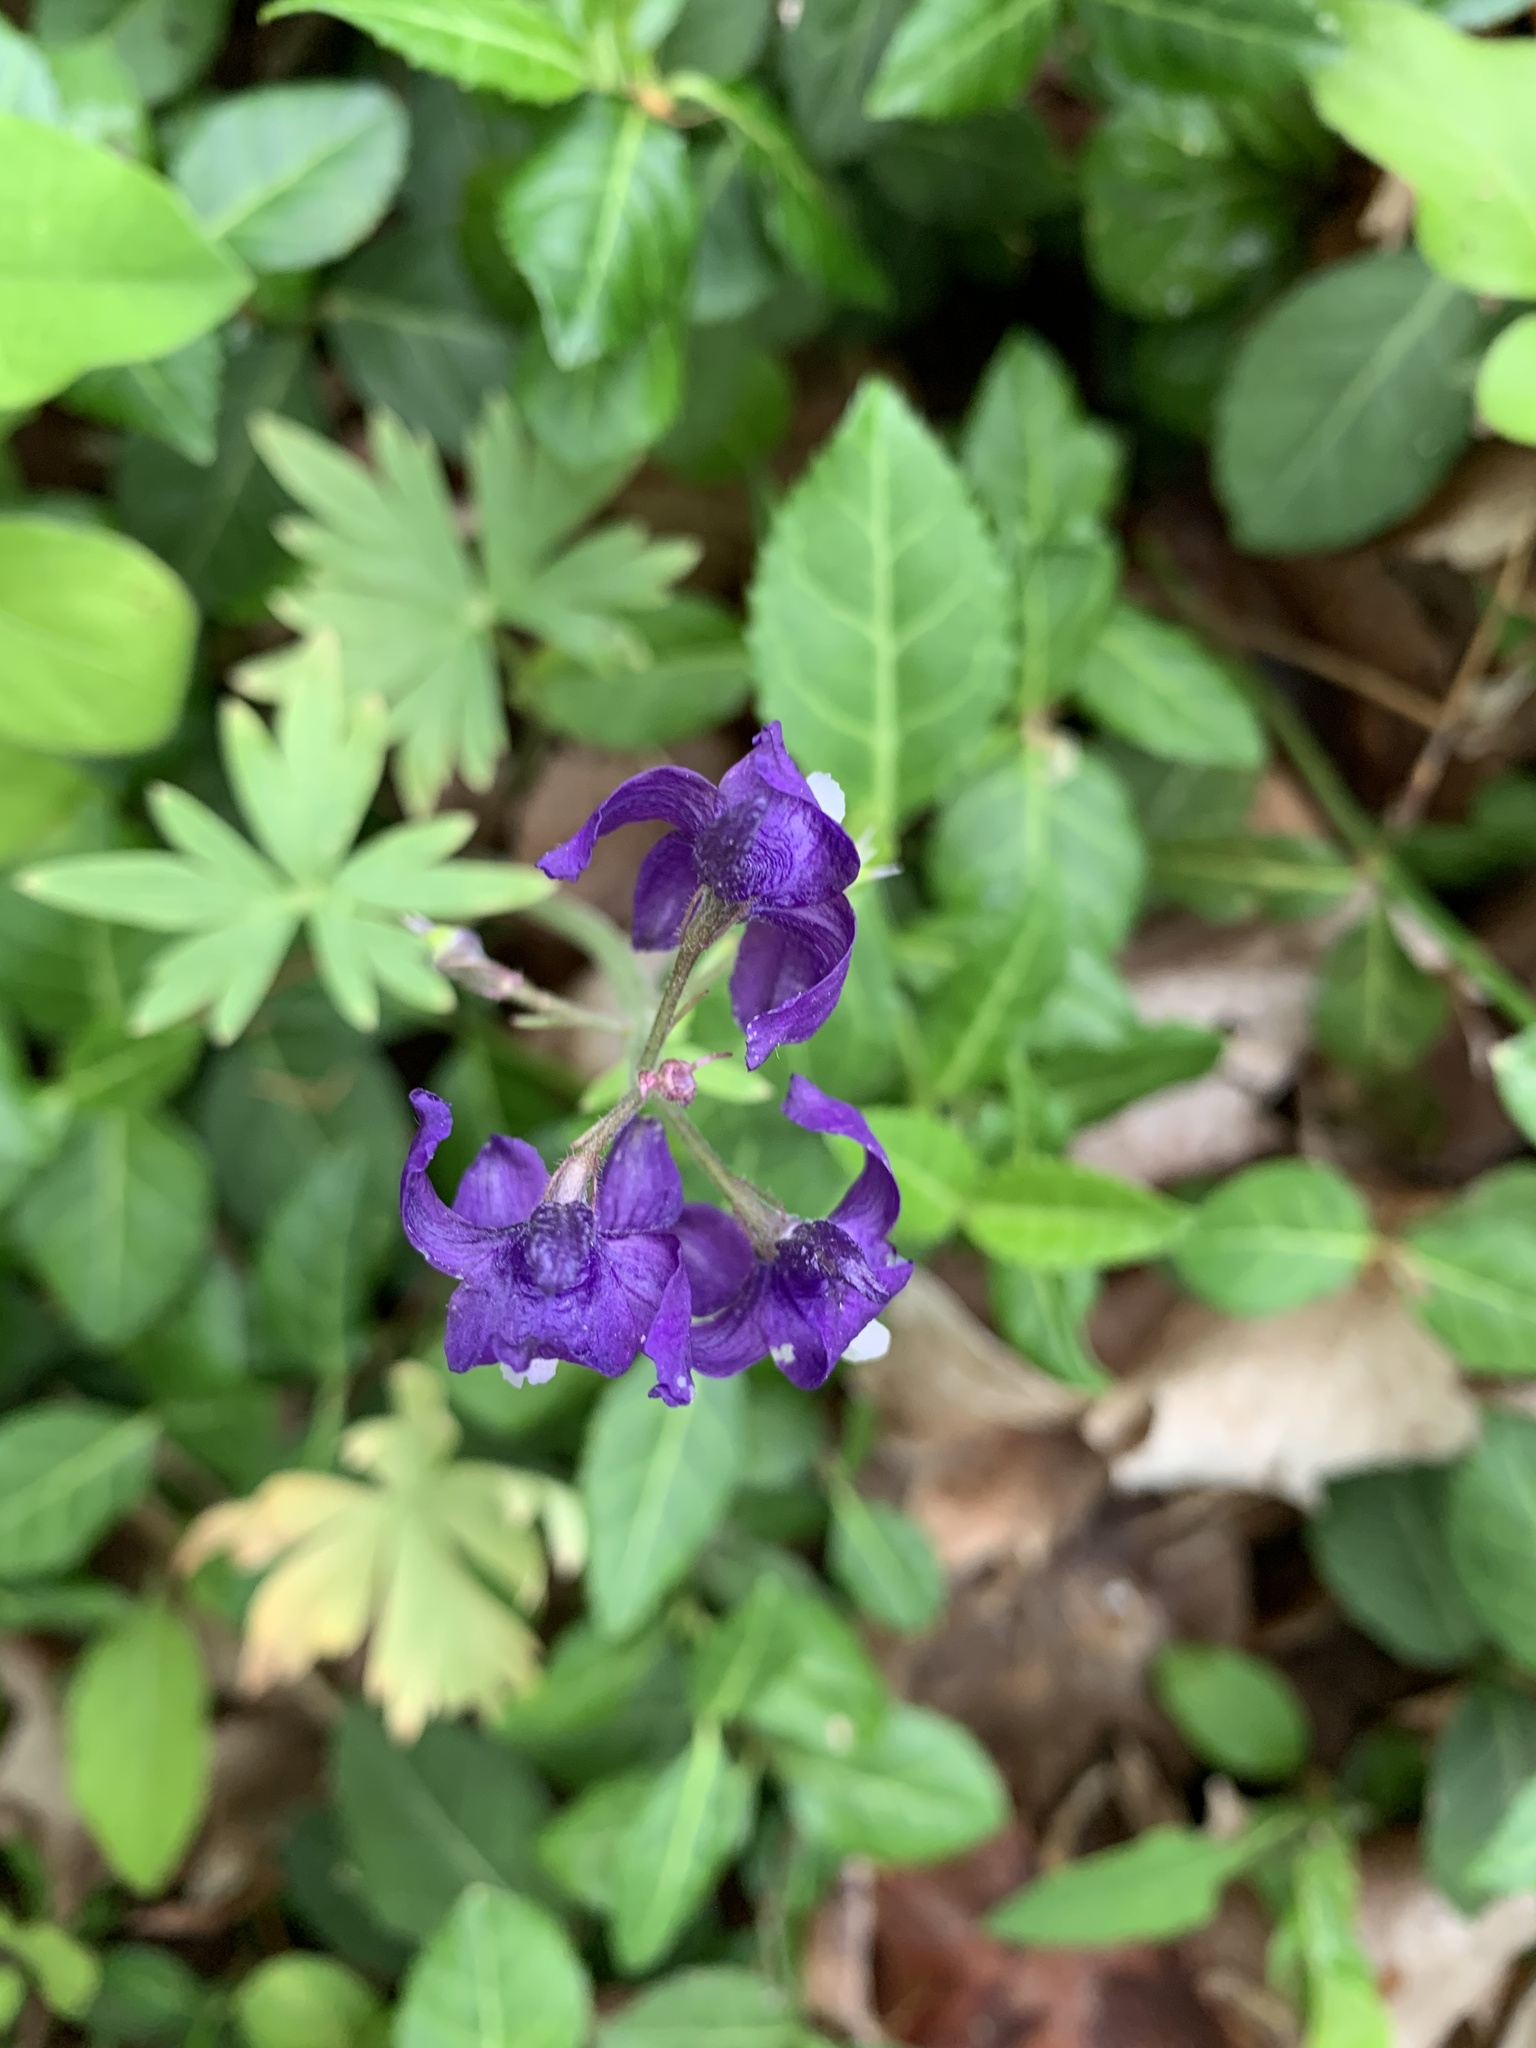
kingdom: Plantae
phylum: Tracheophyta
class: Magnoliopsida
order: Ranunculales
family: Ranunculaceae
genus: Delphinium
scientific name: Delphinium tricorne
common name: Dwarf larkspur
